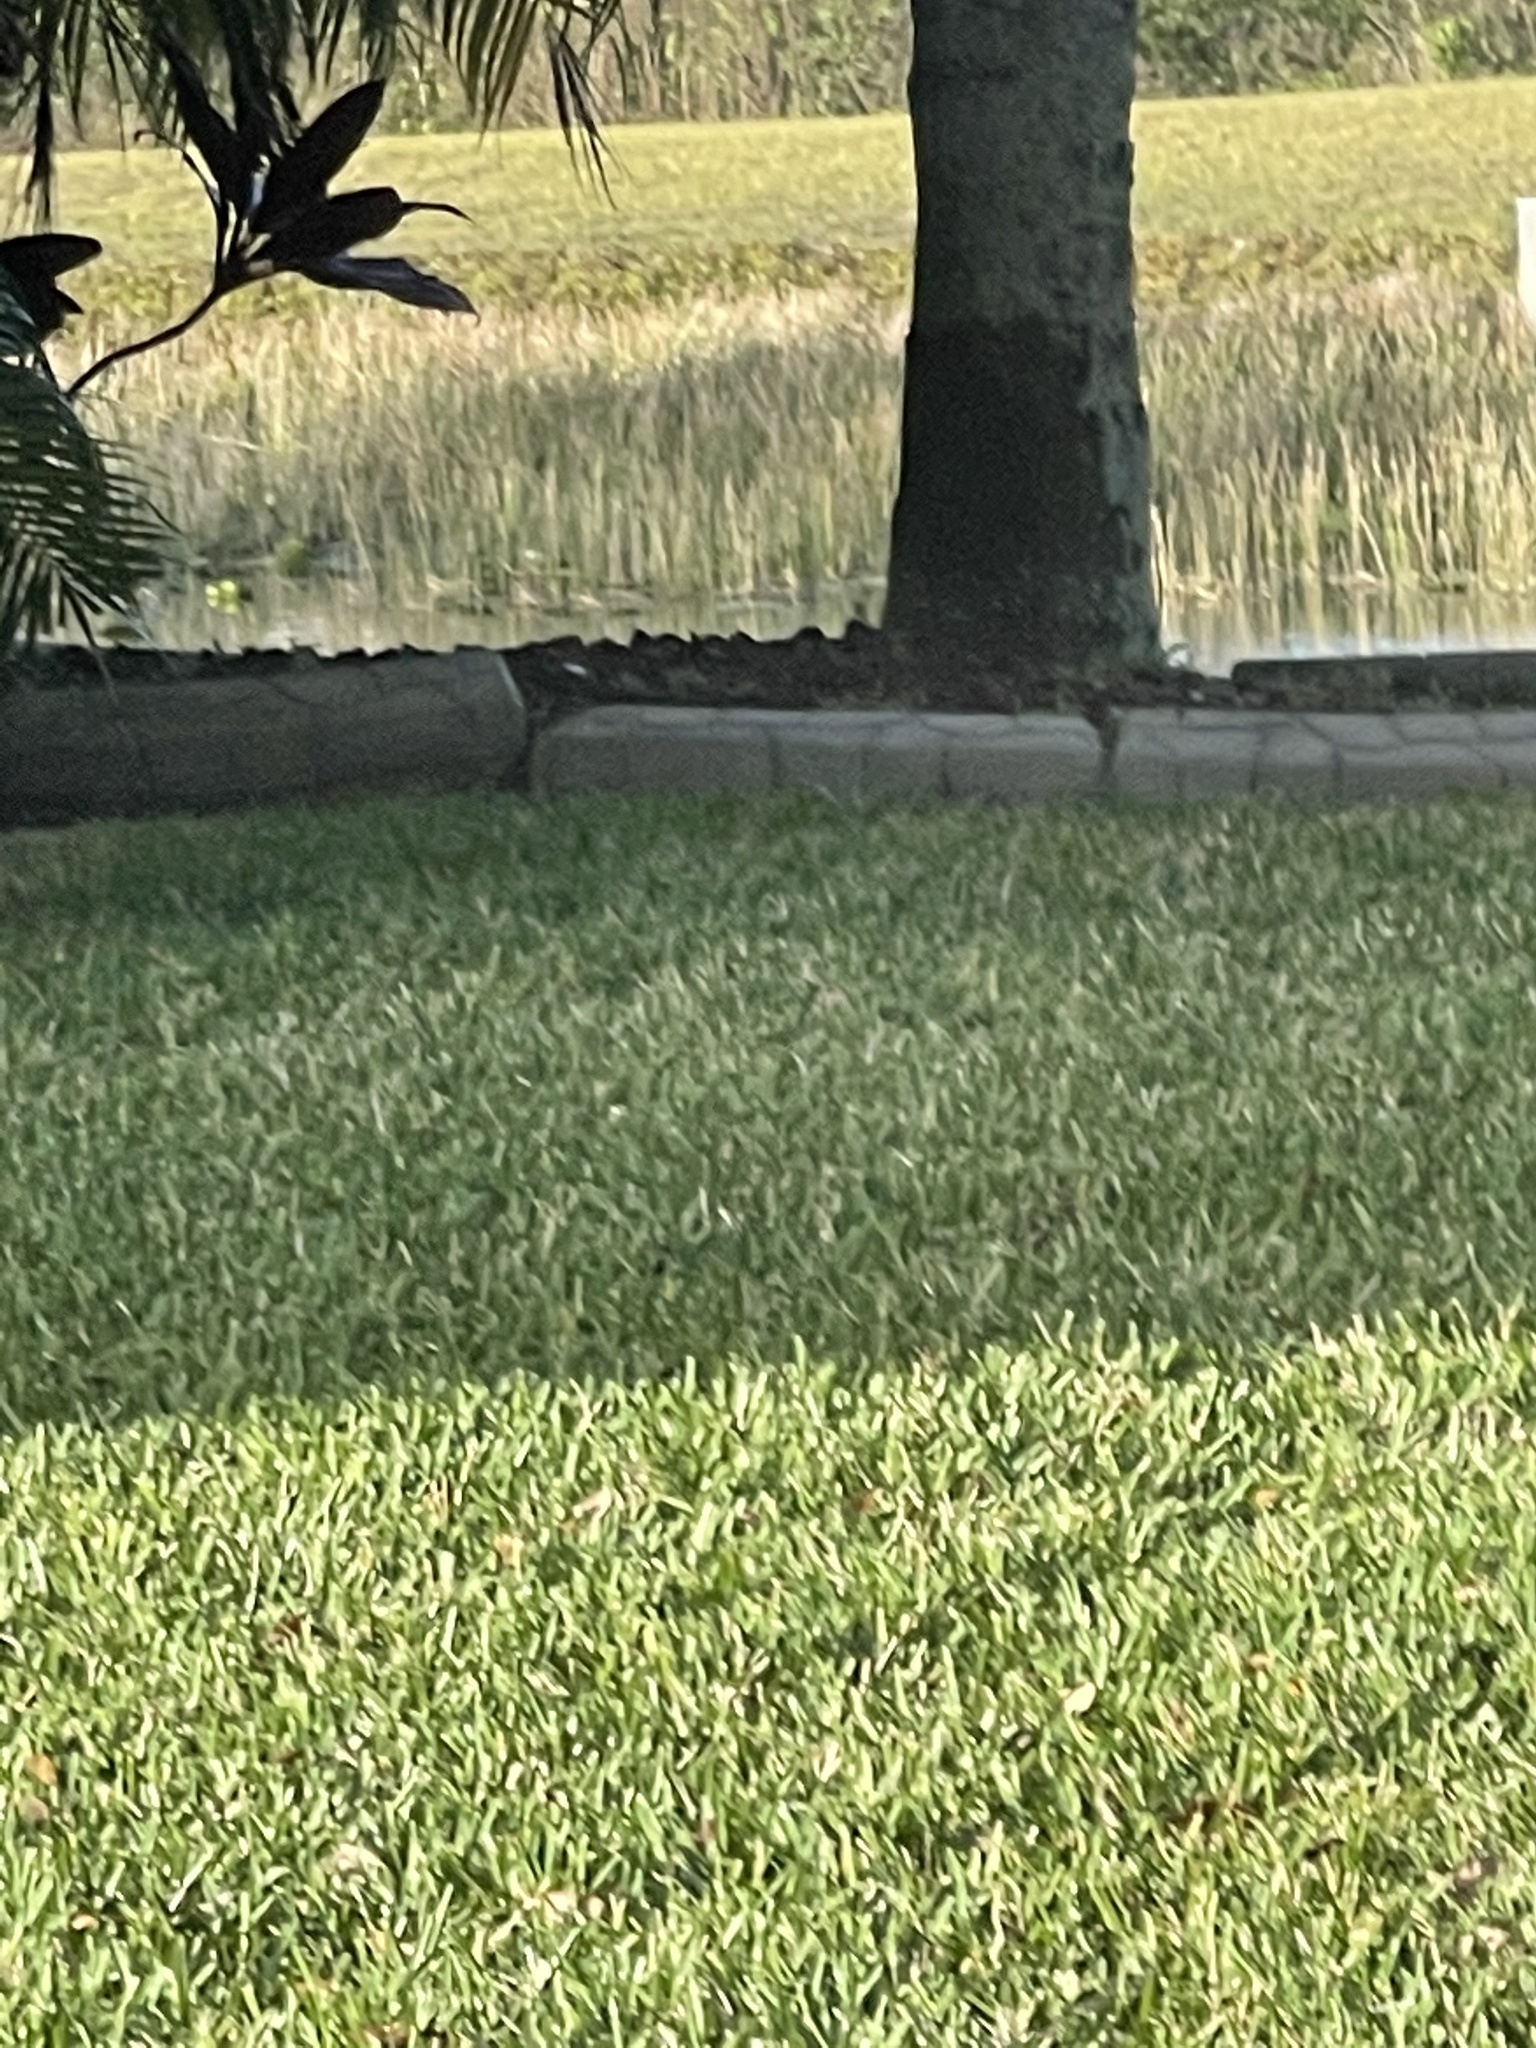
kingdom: Animalia
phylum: Chordata
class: Mammalia
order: Rodentia
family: Sciuridae
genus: Sciurus
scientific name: Sciurus carolinensis
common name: Eastern gray squirrel
